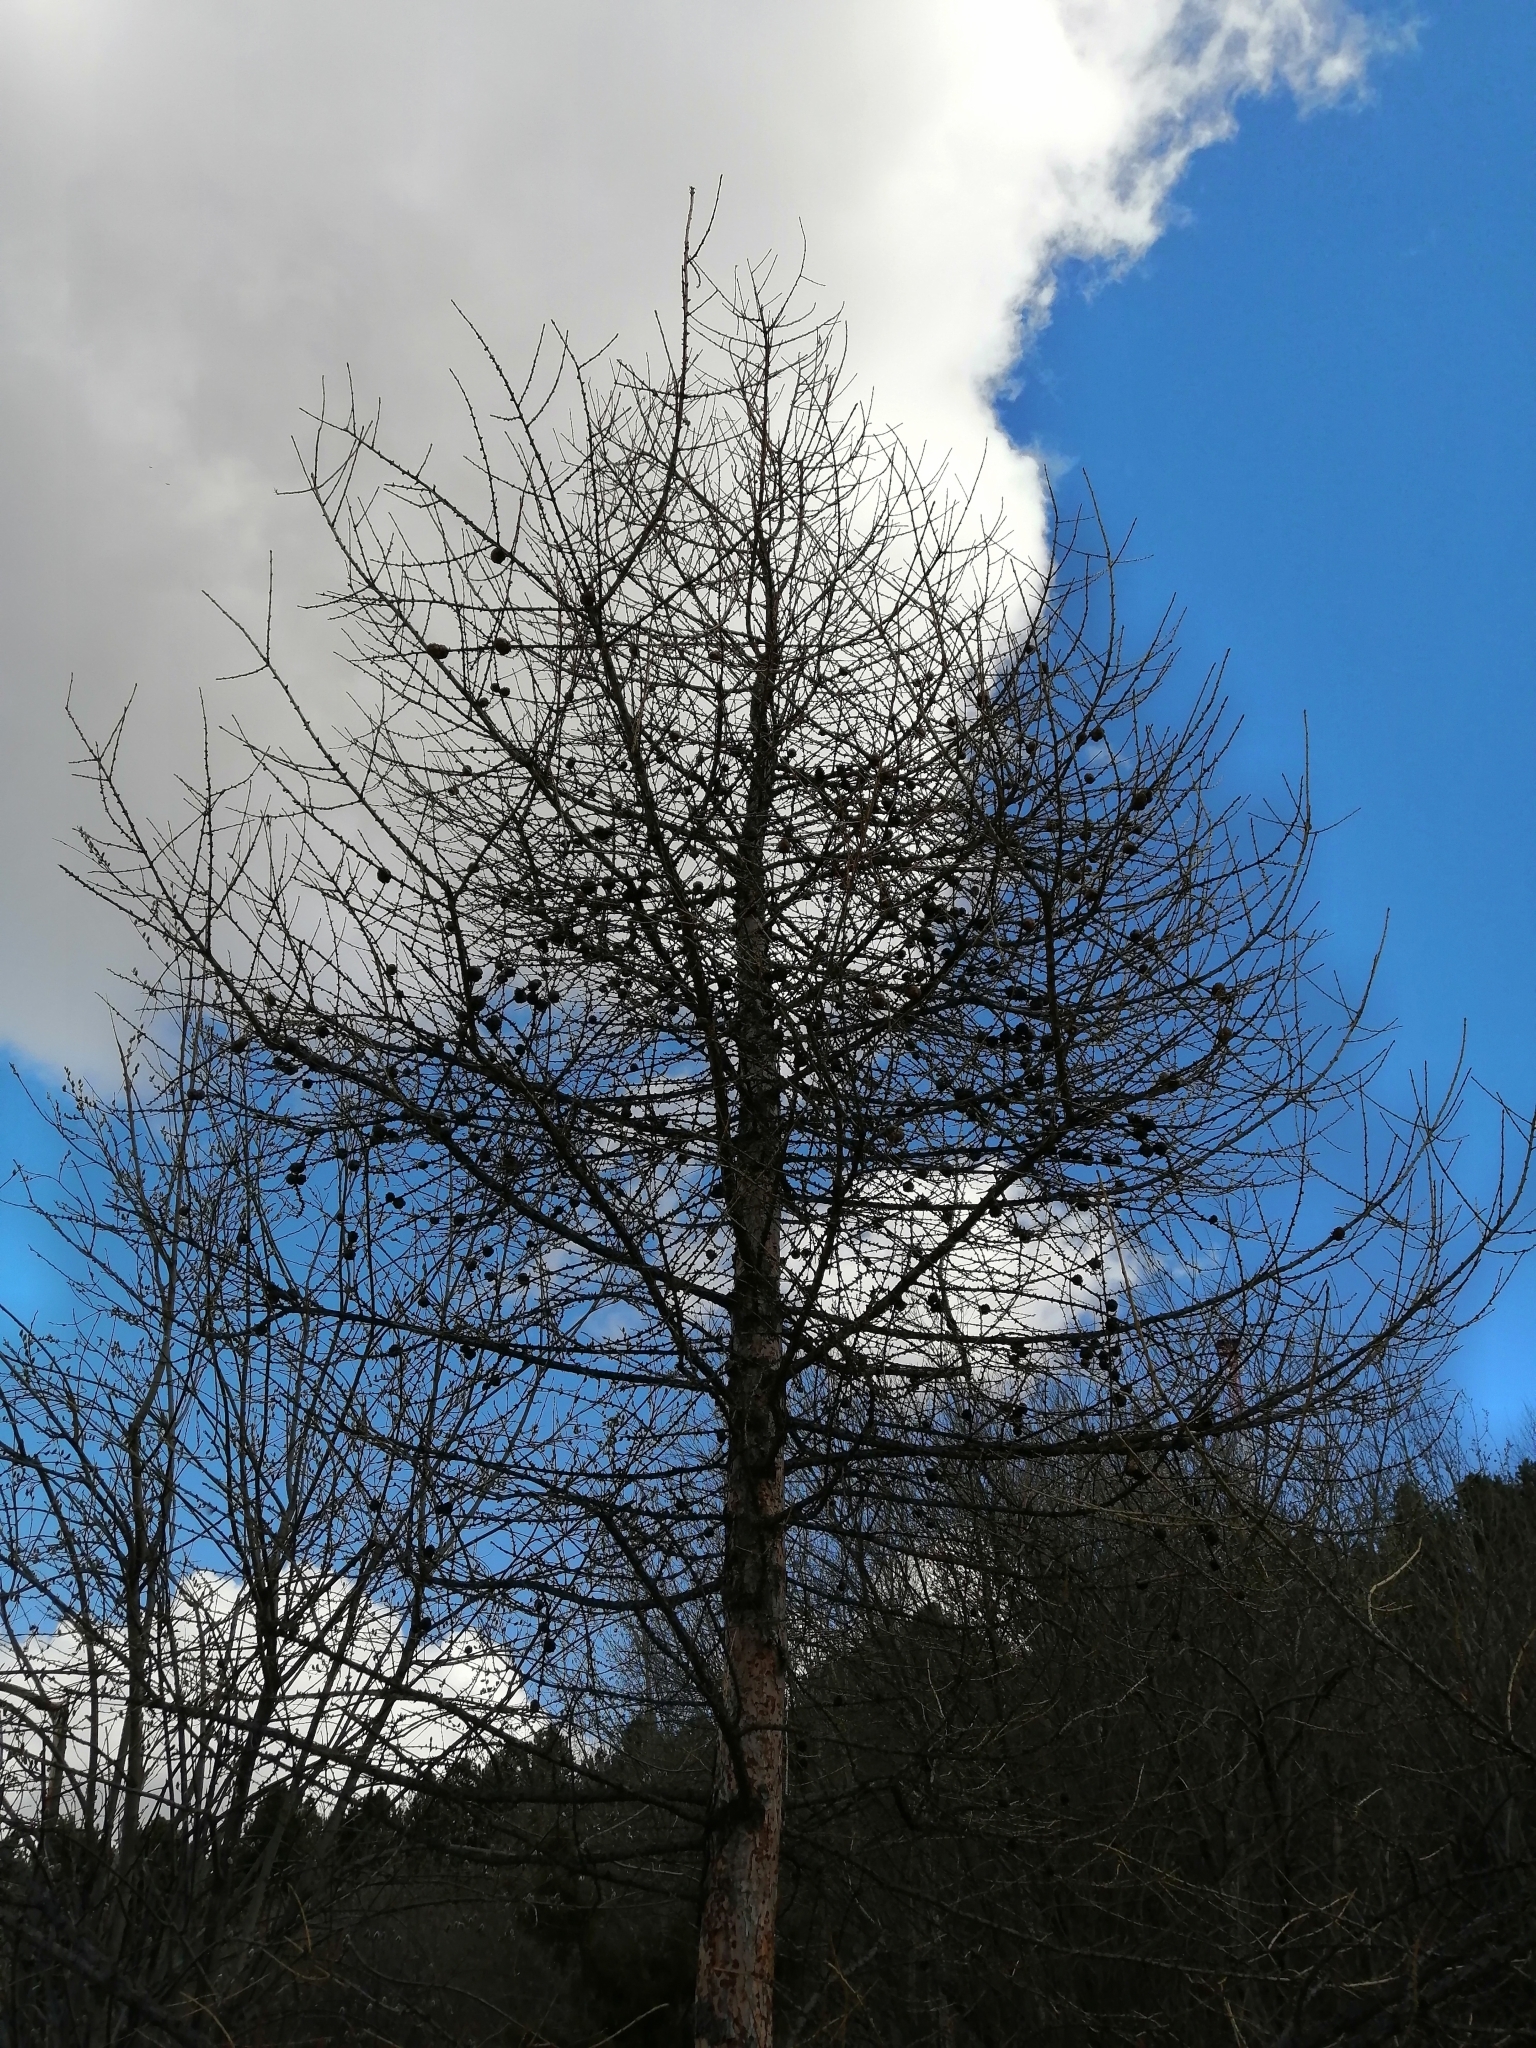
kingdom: Plantae
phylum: Tracheophyta
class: Pinopsida
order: Pinales
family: Pinaceae
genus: Larix
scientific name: Larix sibirica
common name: Siberian larch
